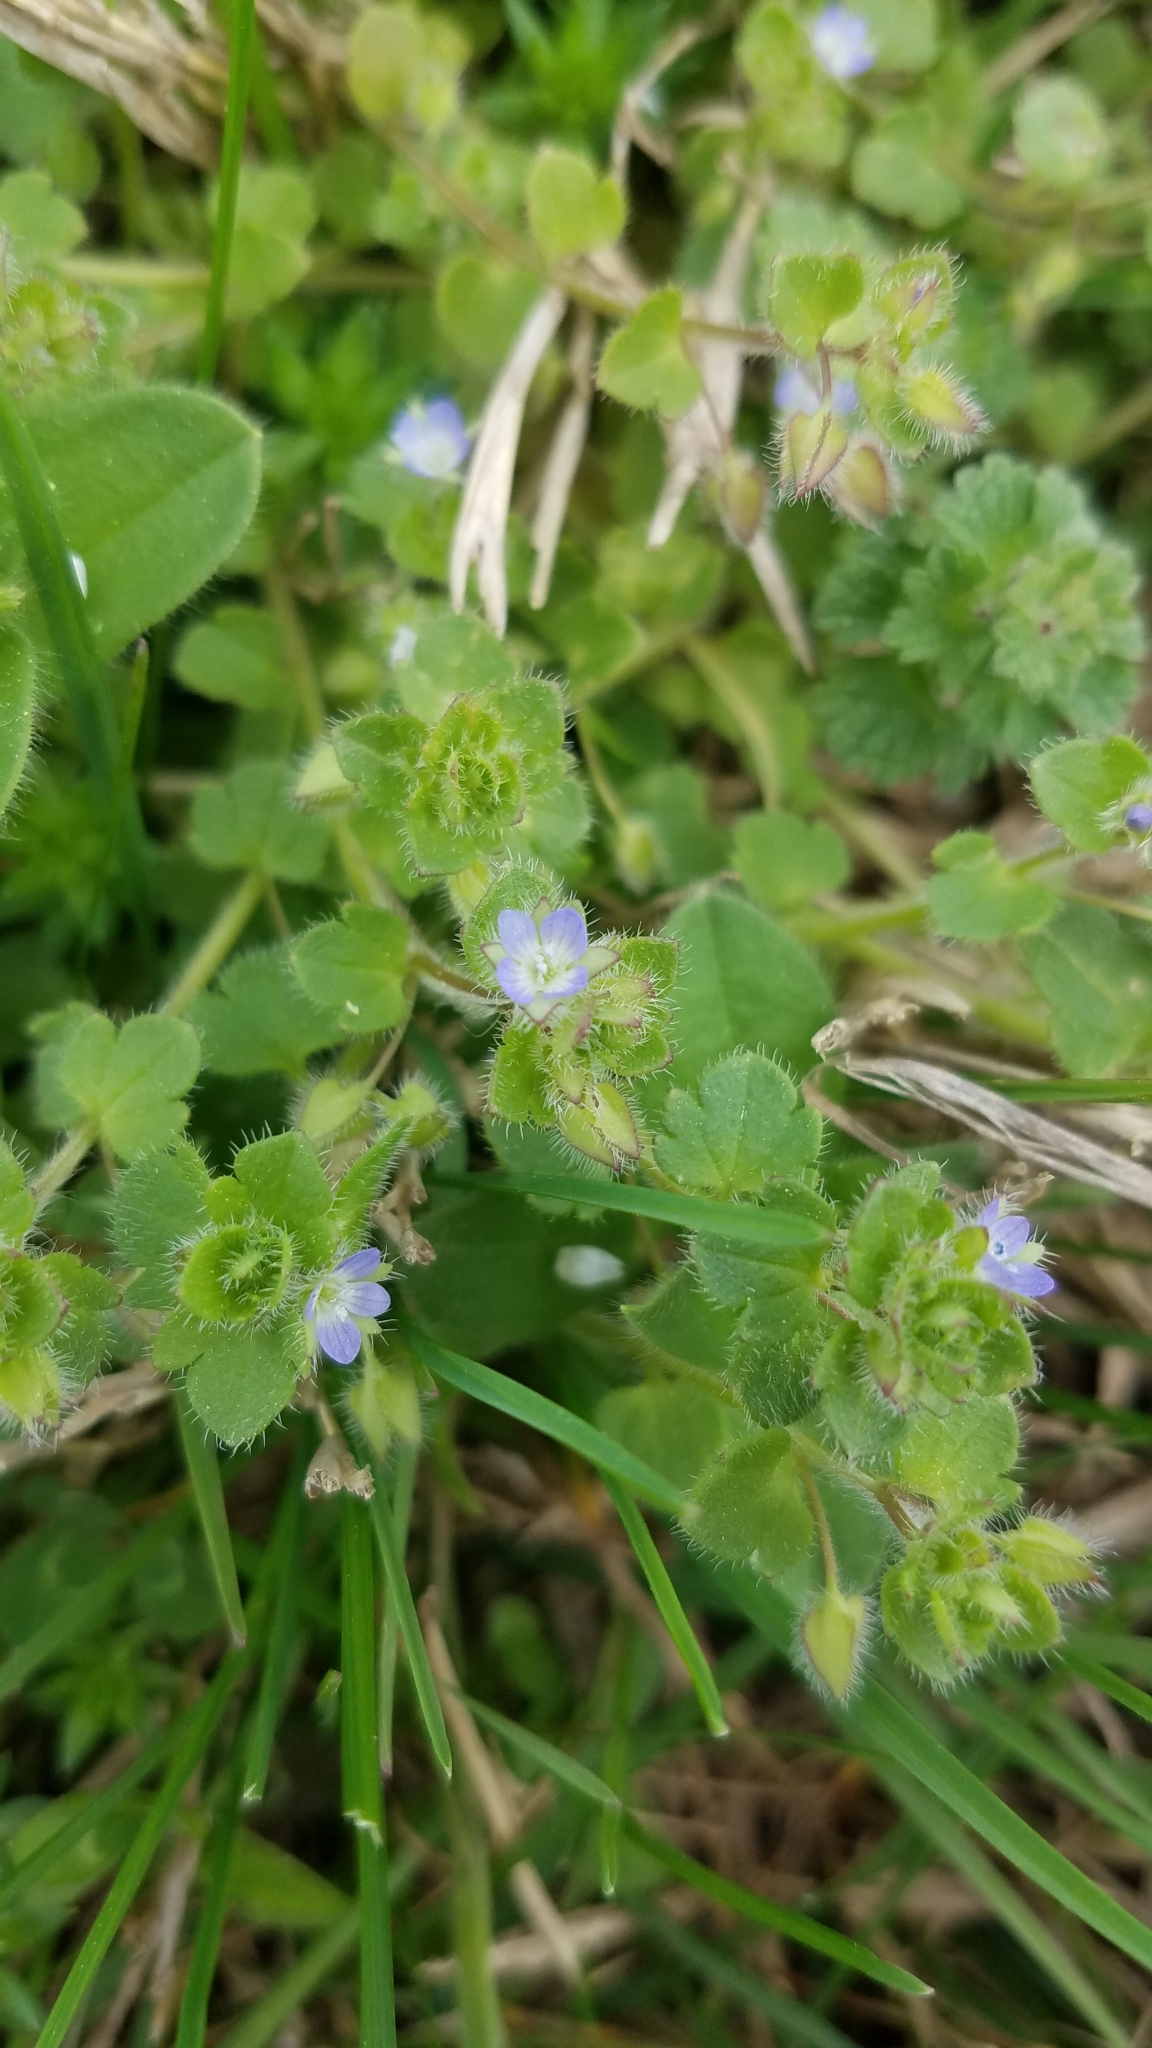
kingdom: Plantae
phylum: Tracheophyta
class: Magnoliopsida
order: Lamiales
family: Plantaginaceae
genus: Veronica
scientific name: Veronica hederifolia
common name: Ivy-leaved speedwell
